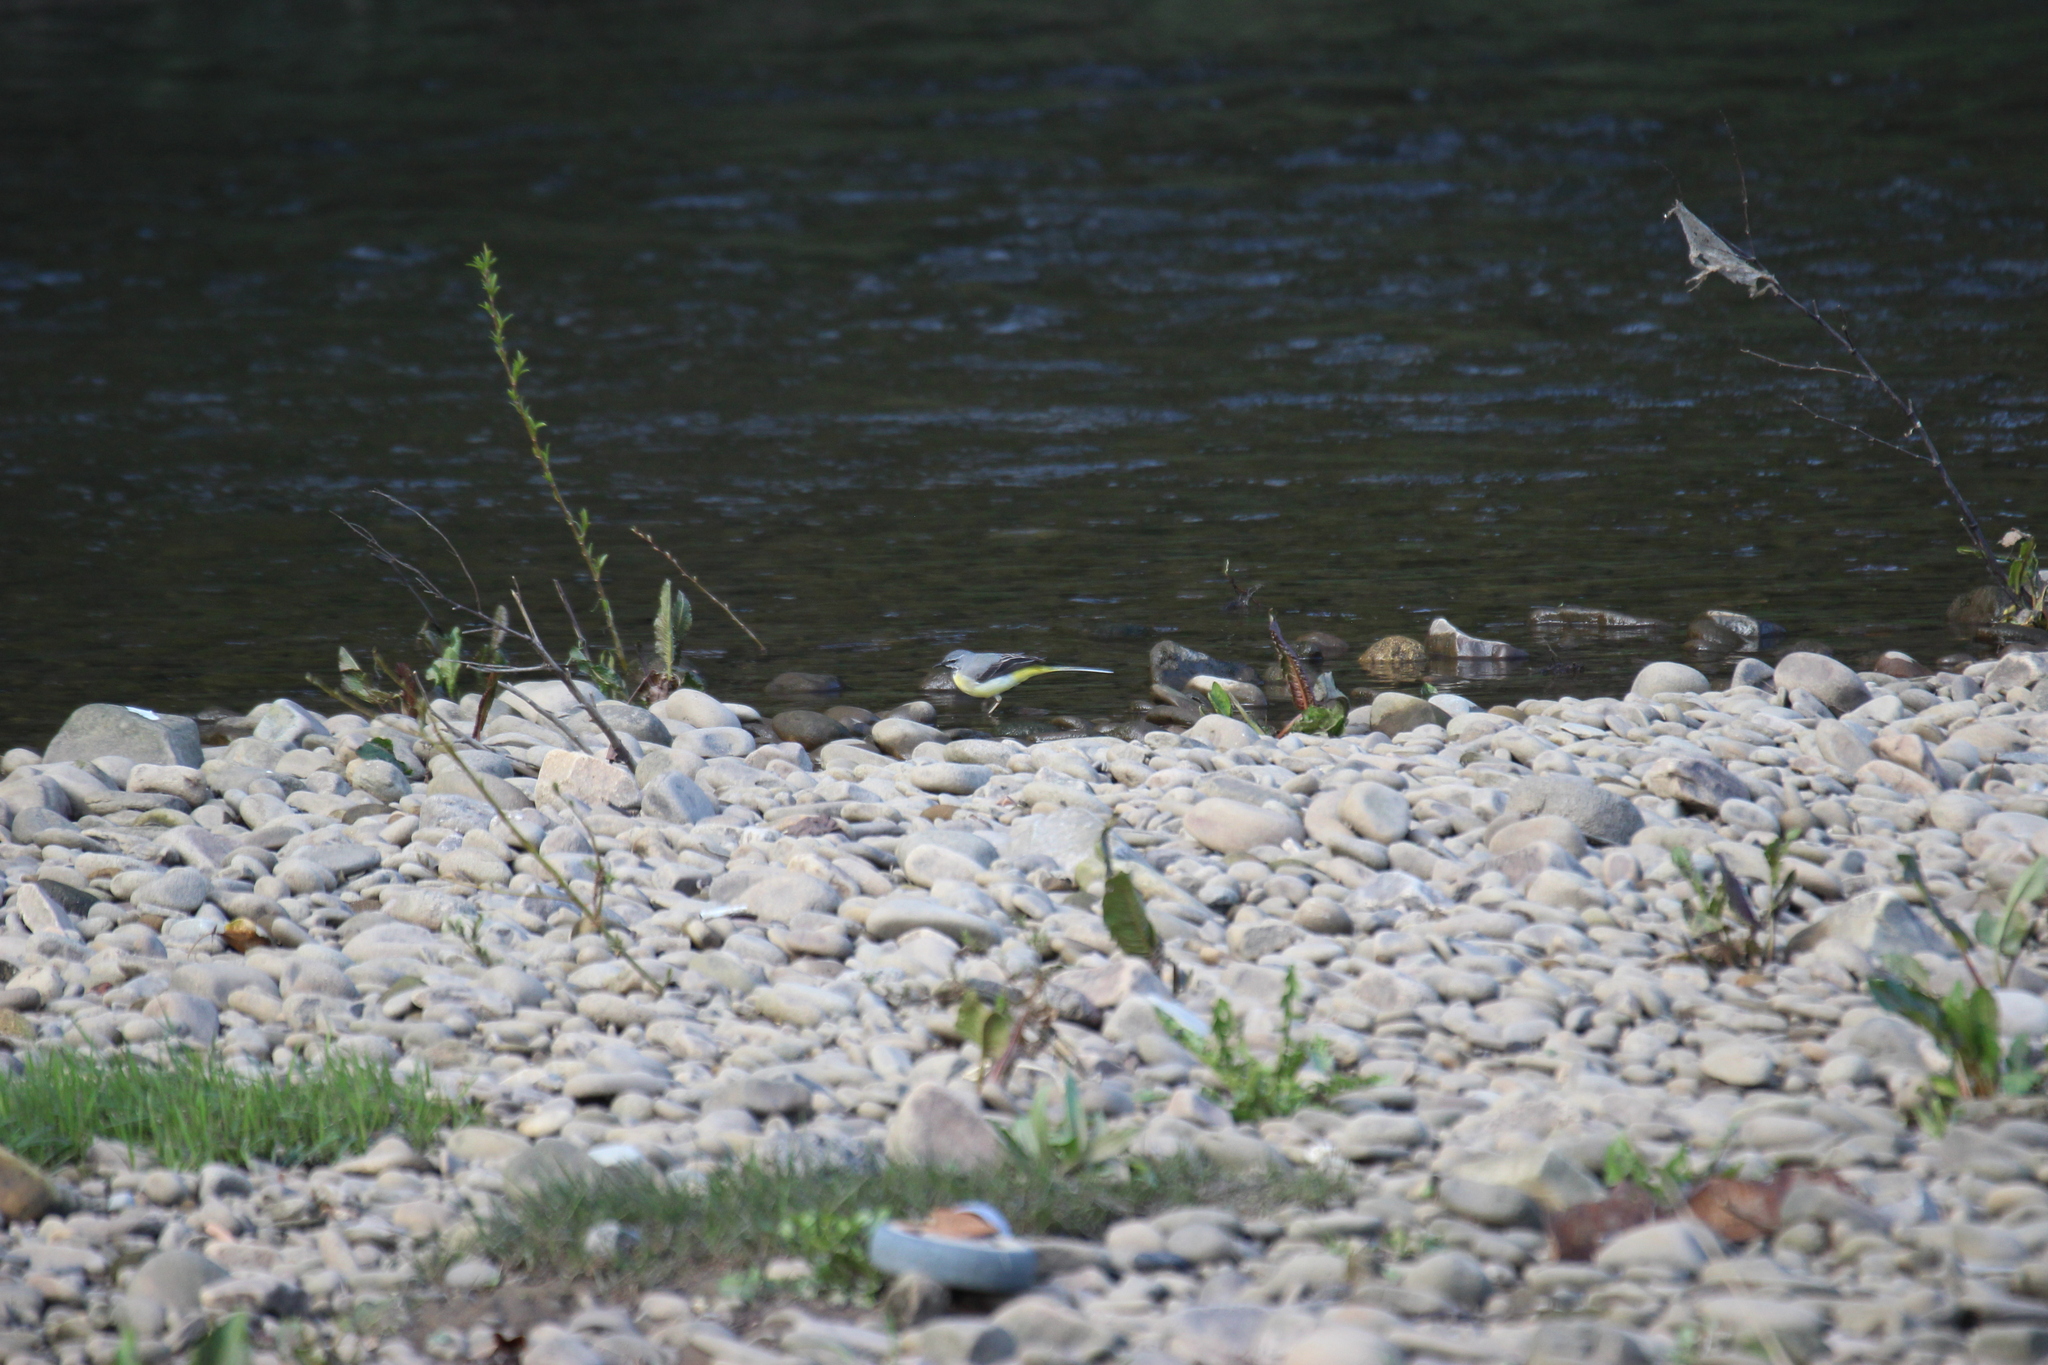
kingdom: Animalia
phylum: Chordata
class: Aves
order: Passeriformes
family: Motacillidae
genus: Motacilla
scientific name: Motacilla cinerea
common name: Grey wagtail
